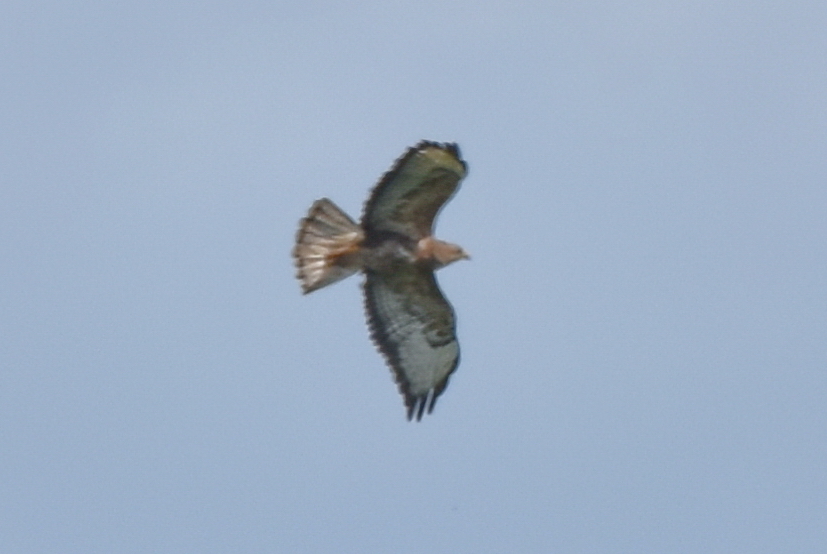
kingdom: Animalia
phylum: Chordata
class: Aves
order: Accipitriformes
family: Accipitridae
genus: Buteo
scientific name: Buteo buteo
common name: Common buzzard
